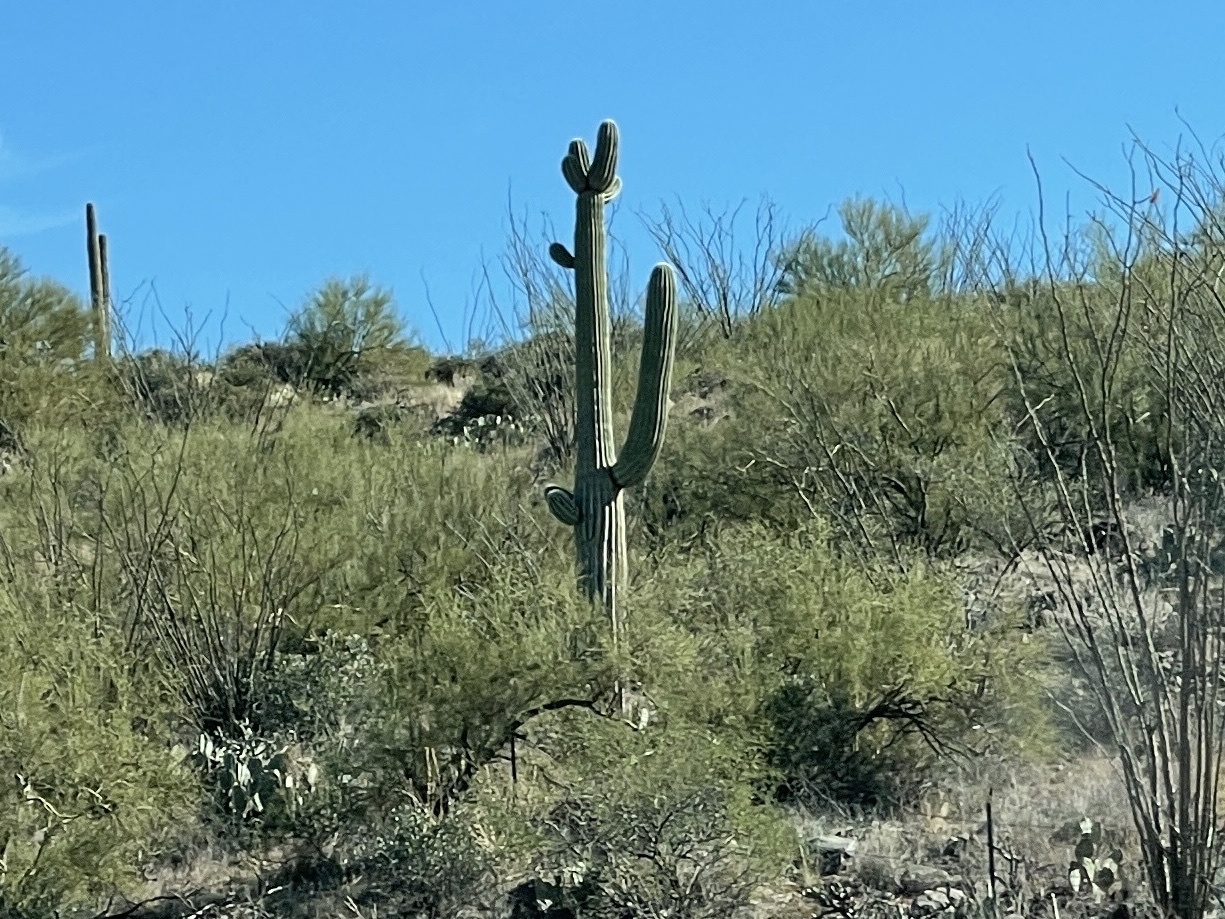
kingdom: Plantae
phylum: Tracheophyta
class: Magnoliopsida
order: Caryophyllales
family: Cactaceae
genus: Carnegiea
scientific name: Carnegiea gigantea
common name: Saguaro
